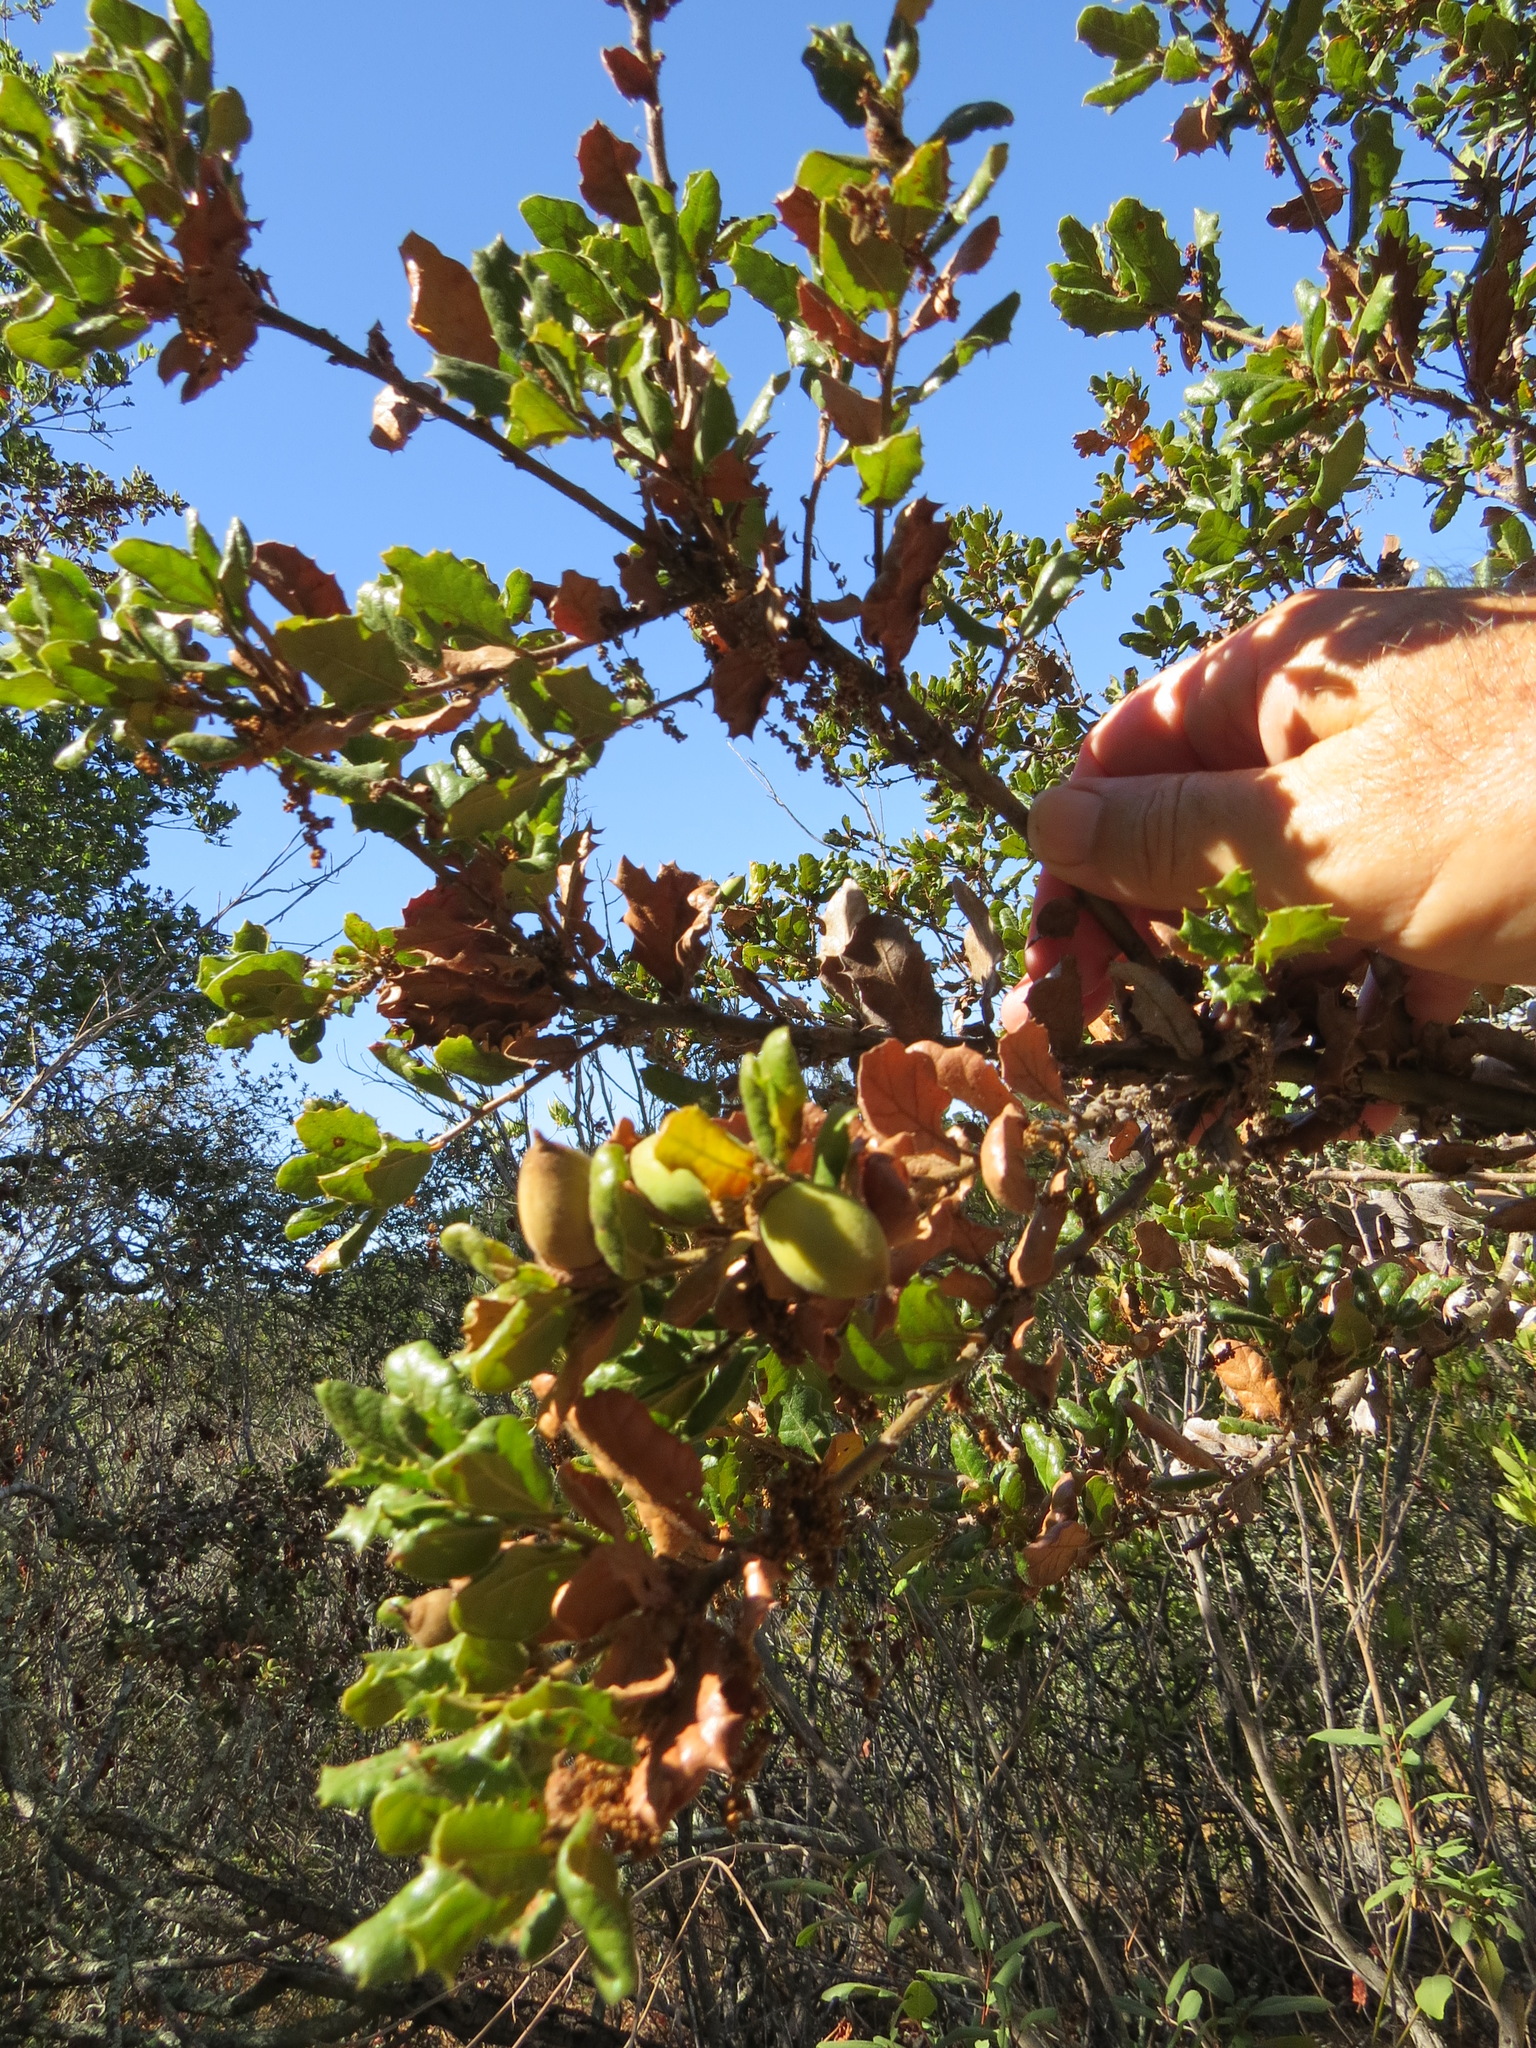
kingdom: Plantae
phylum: Tracheophyta
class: Magnoliopsida
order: Fagales
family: Fagaceae
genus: Quercus
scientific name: Quercus durata
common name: Leather oak
